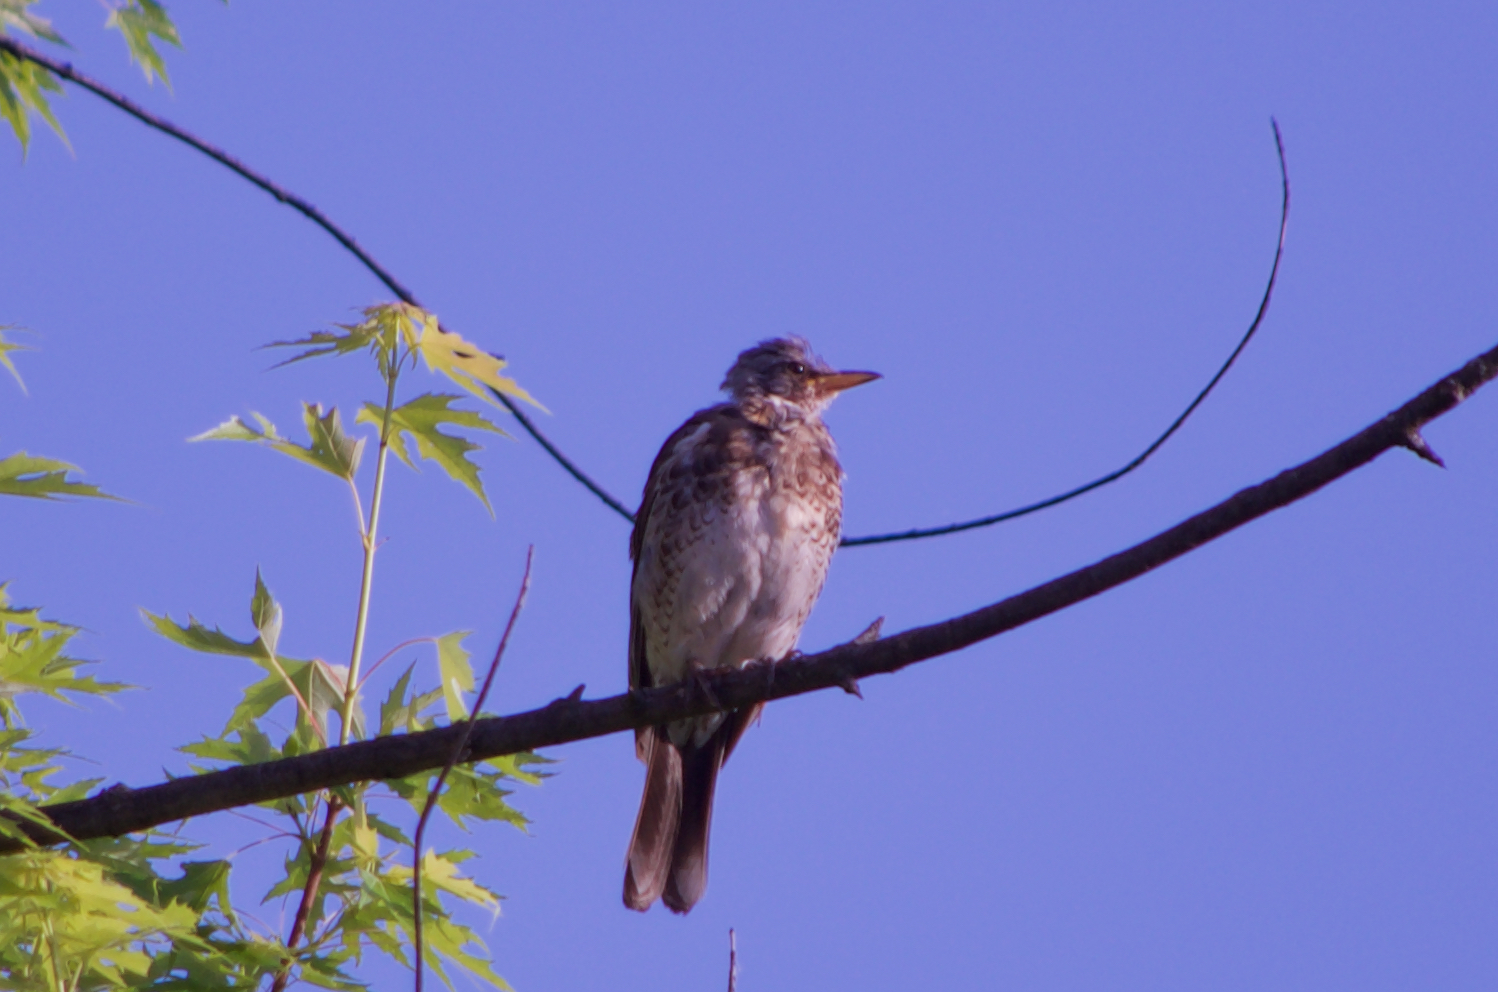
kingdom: Animalia
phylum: Chordata
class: Aves
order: Passeriformes
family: Turdidae
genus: Turdus
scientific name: Turdus pilaris
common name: Fieldfare
